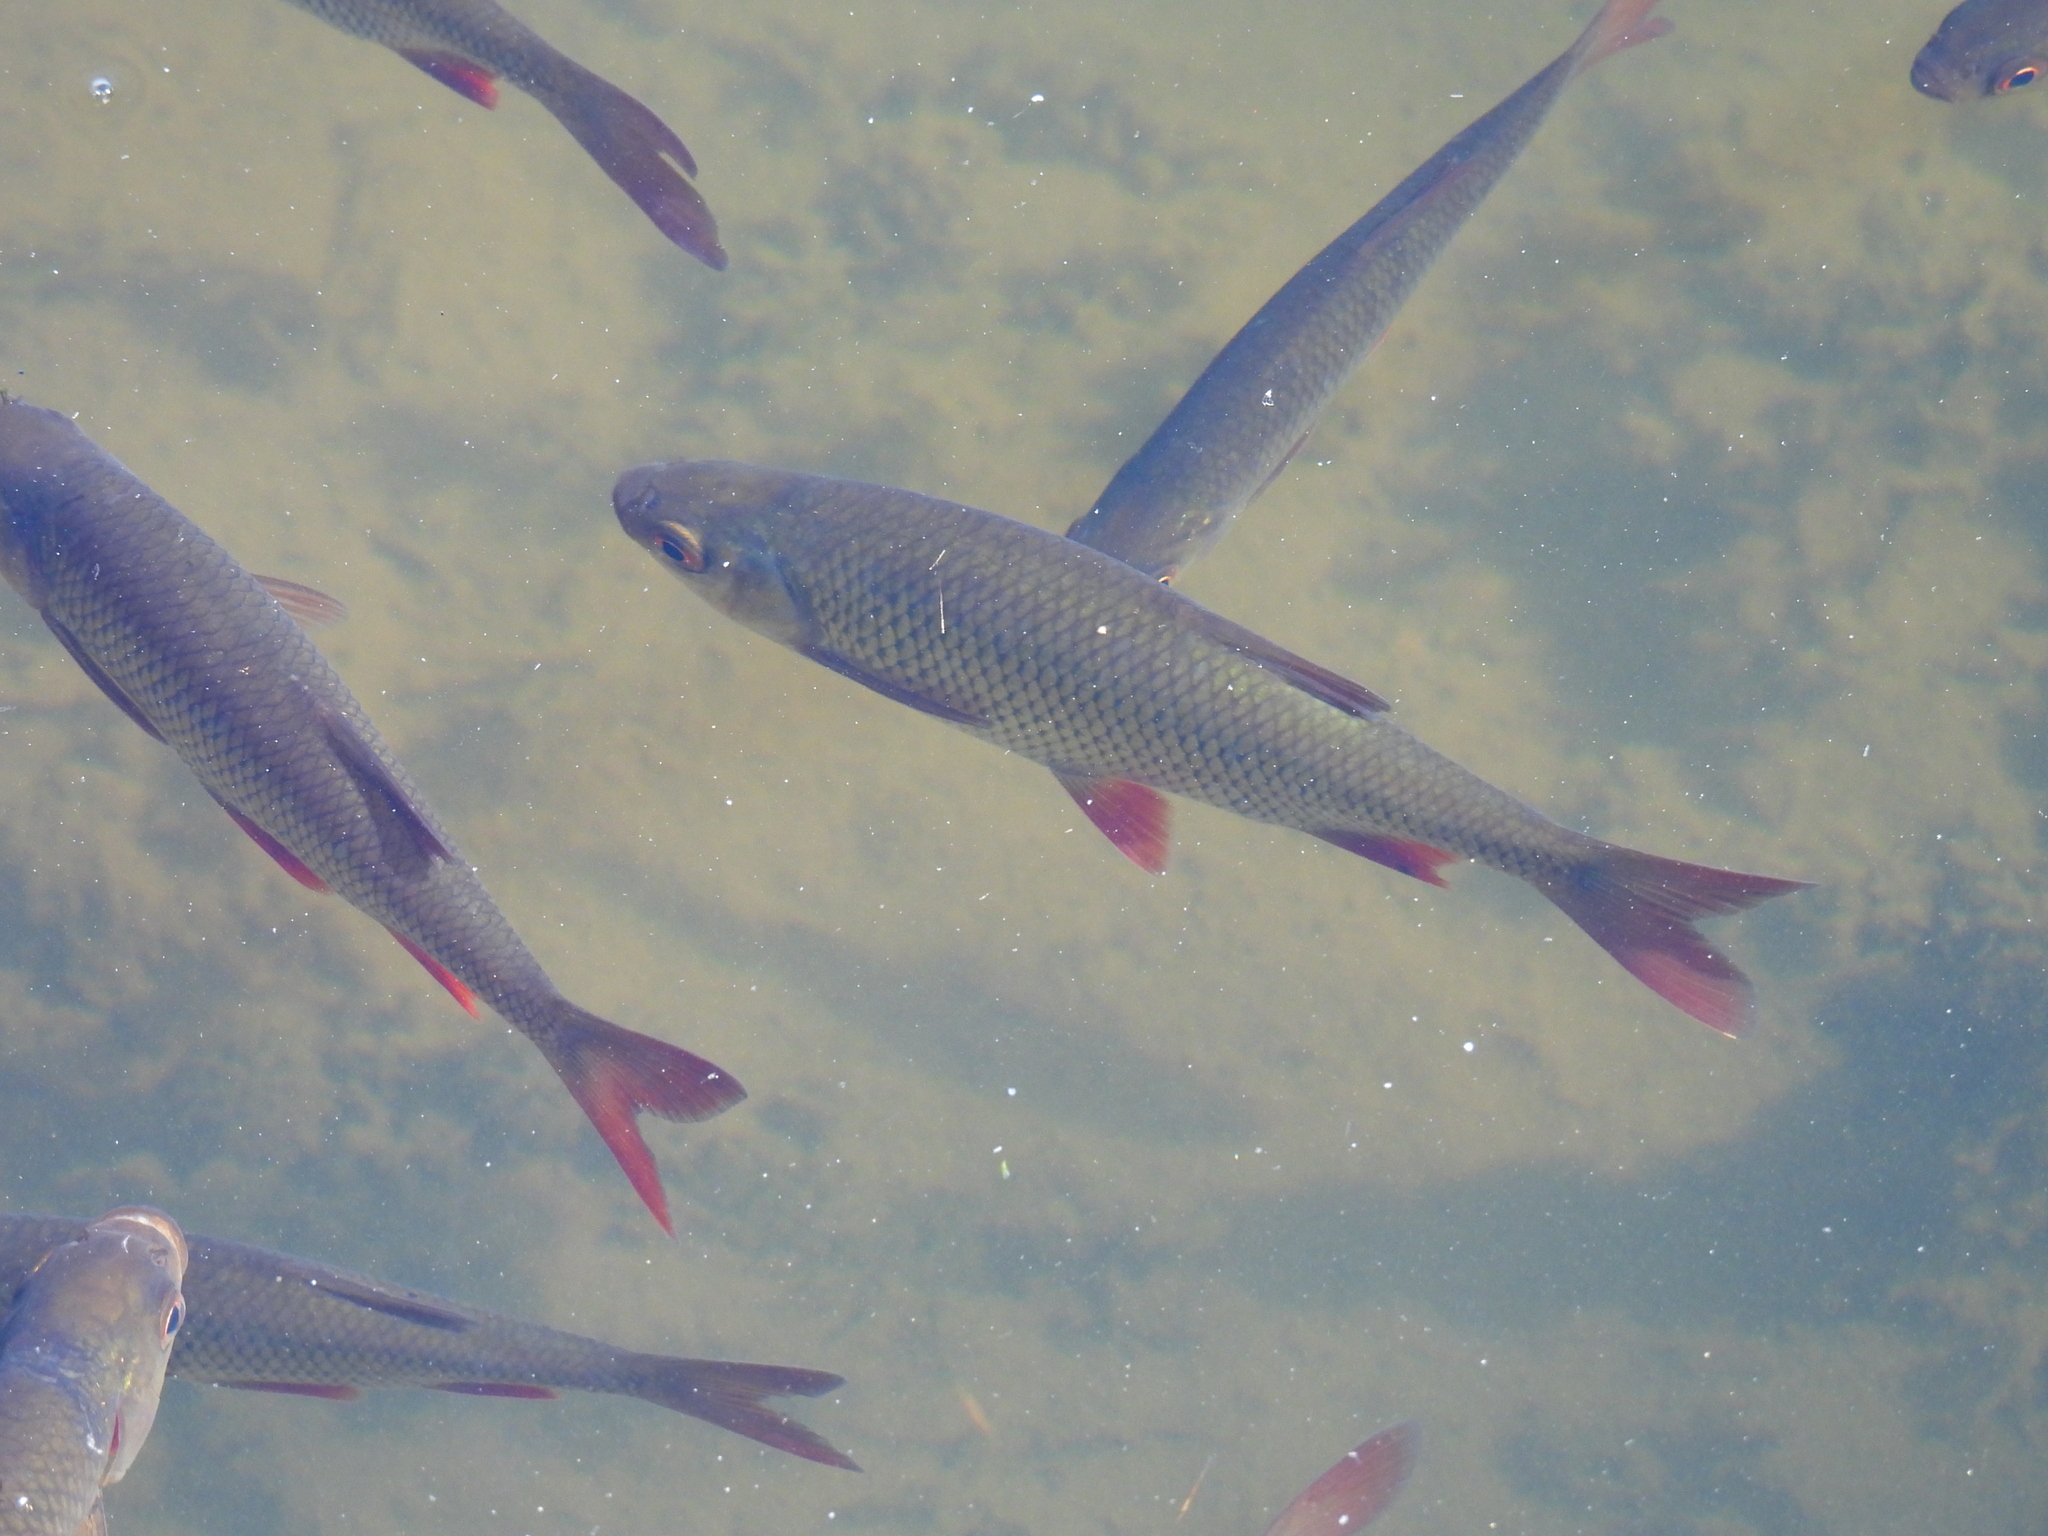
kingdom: Animalia
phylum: Chordata
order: Cypriniformes
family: Cyprinidae
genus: Scardinius
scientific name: Scardinius erythrophthalmus
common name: Rudd
